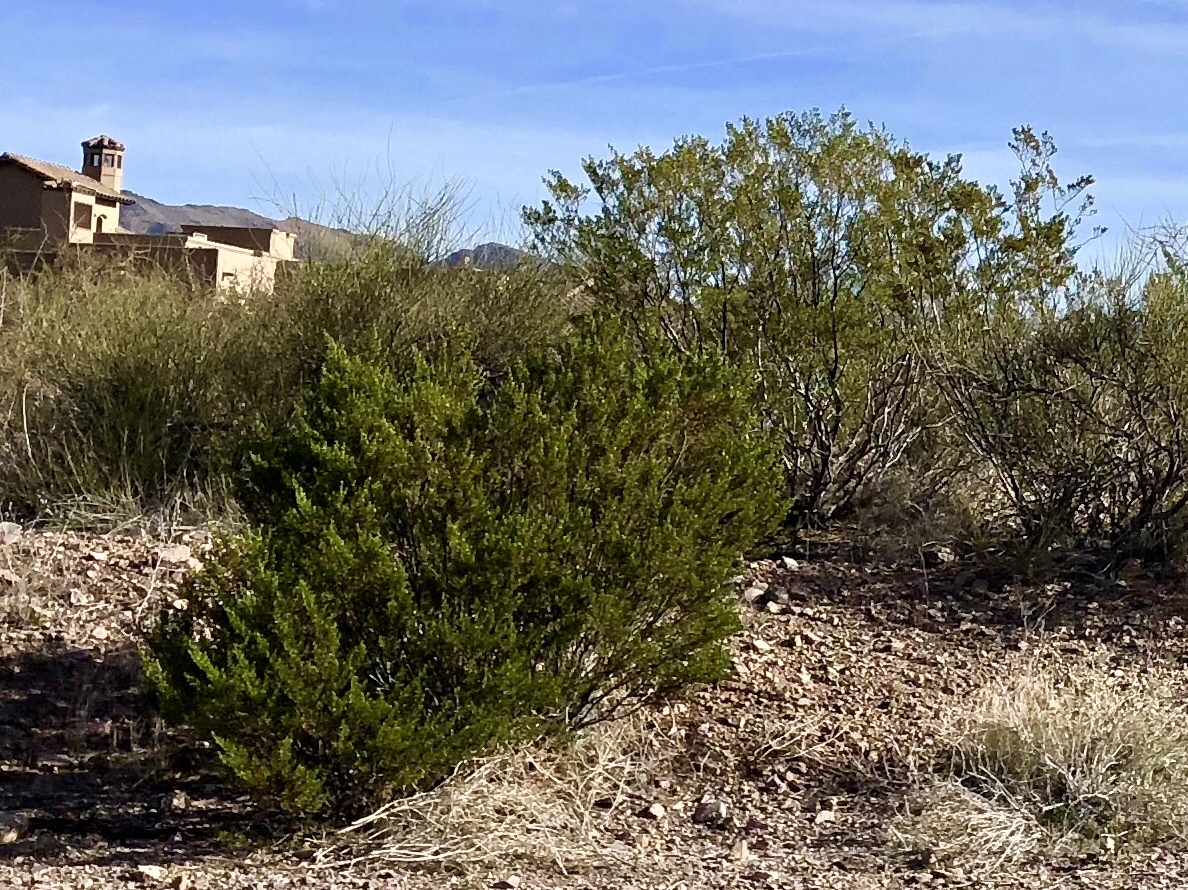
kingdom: Plantae
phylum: Tracheophyta
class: Magnoliopsida
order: Zygophyllales
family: Zygophyllaceae
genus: Larrea
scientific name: Larrea tridentata
